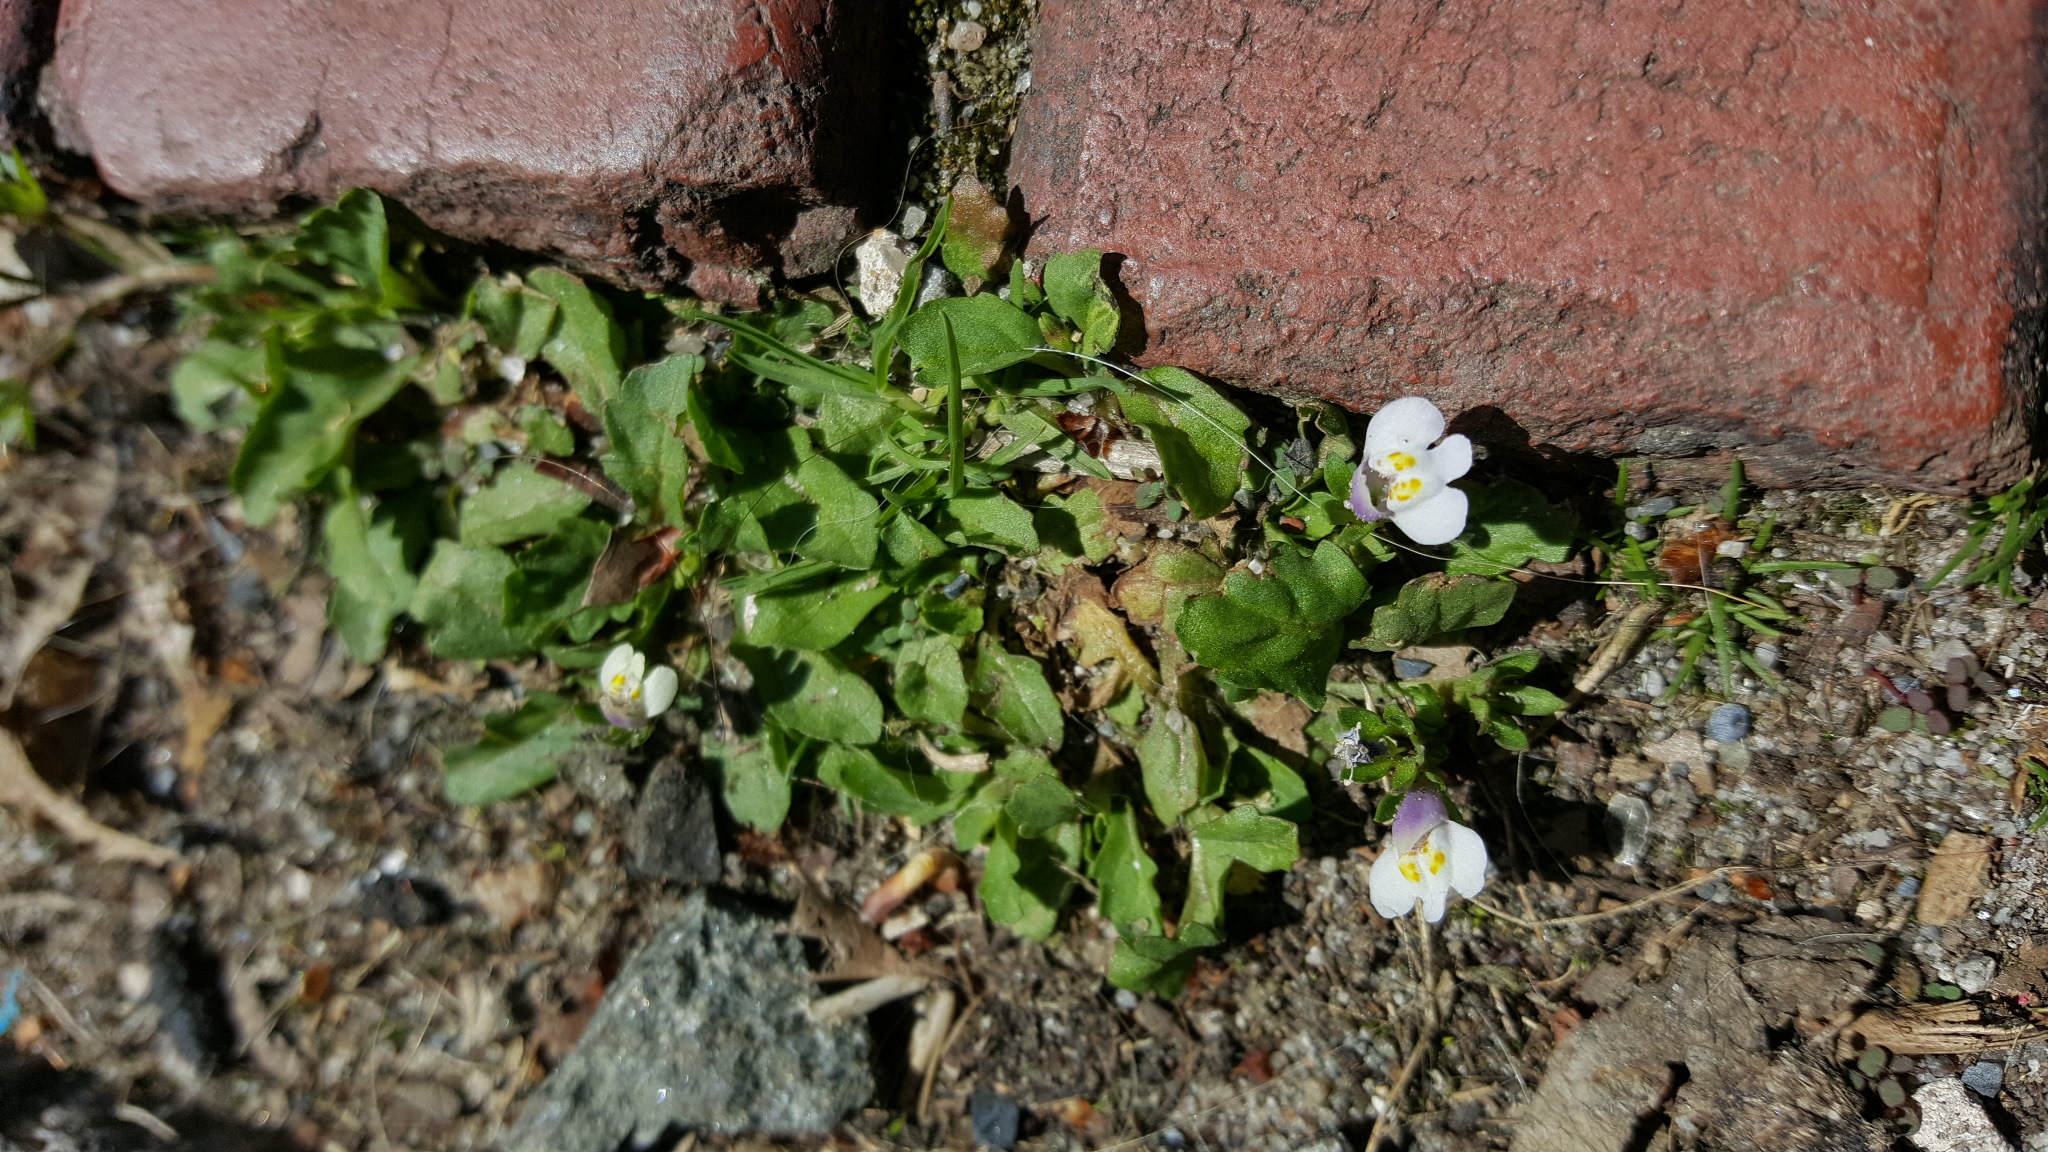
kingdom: Plantae
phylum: Tracheophyta
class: Magnoliopsida
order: Lamiales
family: Mazaceae
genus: Mazus
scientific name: Mazus pumilus
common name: Japanese mazus
